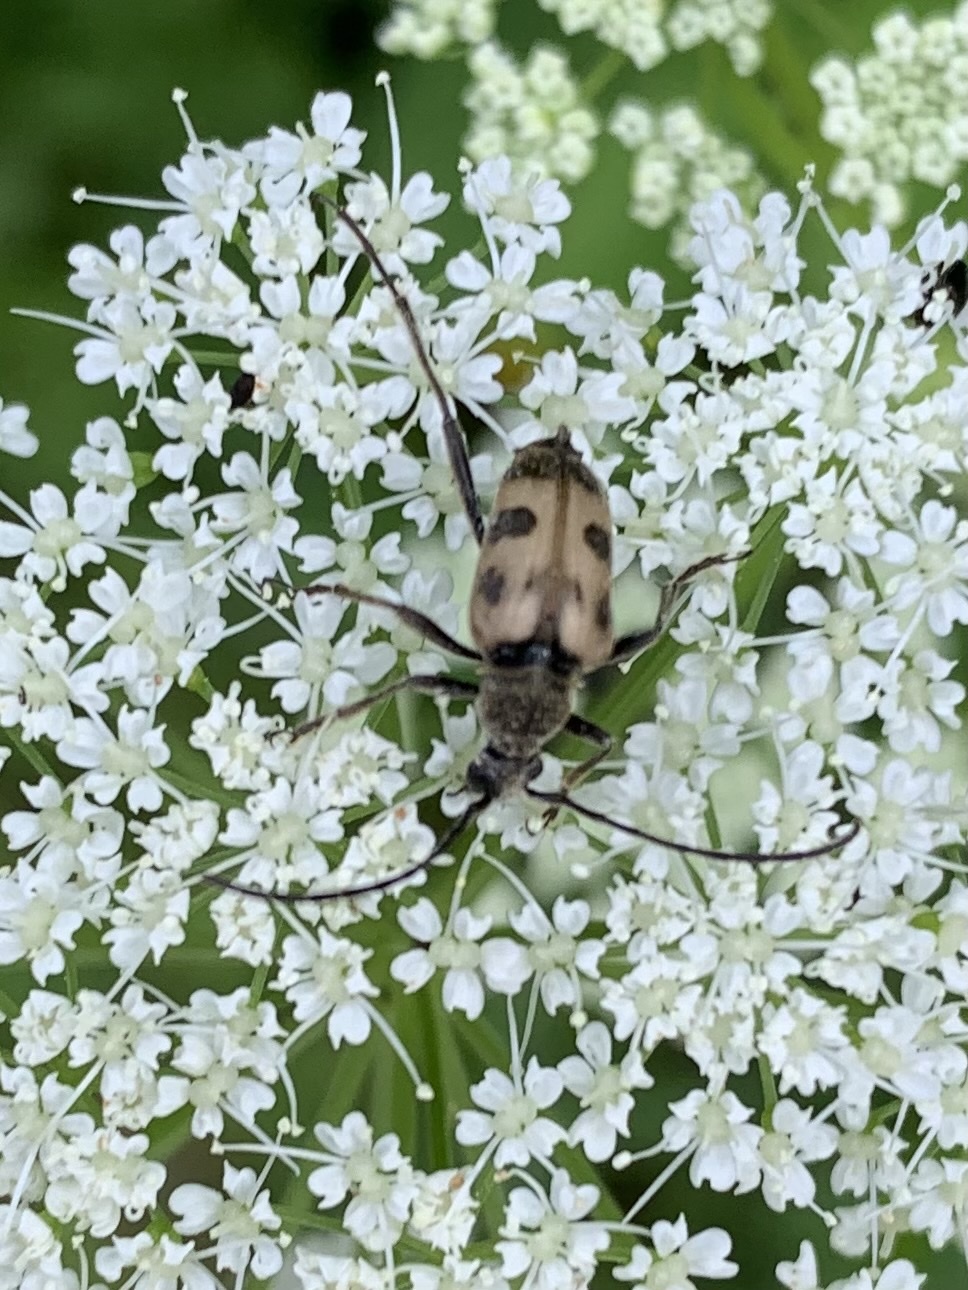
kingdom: Animalia
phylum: Arthropoda
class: Insecta
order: Coleoptera
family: Cerambycidae
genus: Pachytodes
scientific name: Pachytodes cerambyciformis
